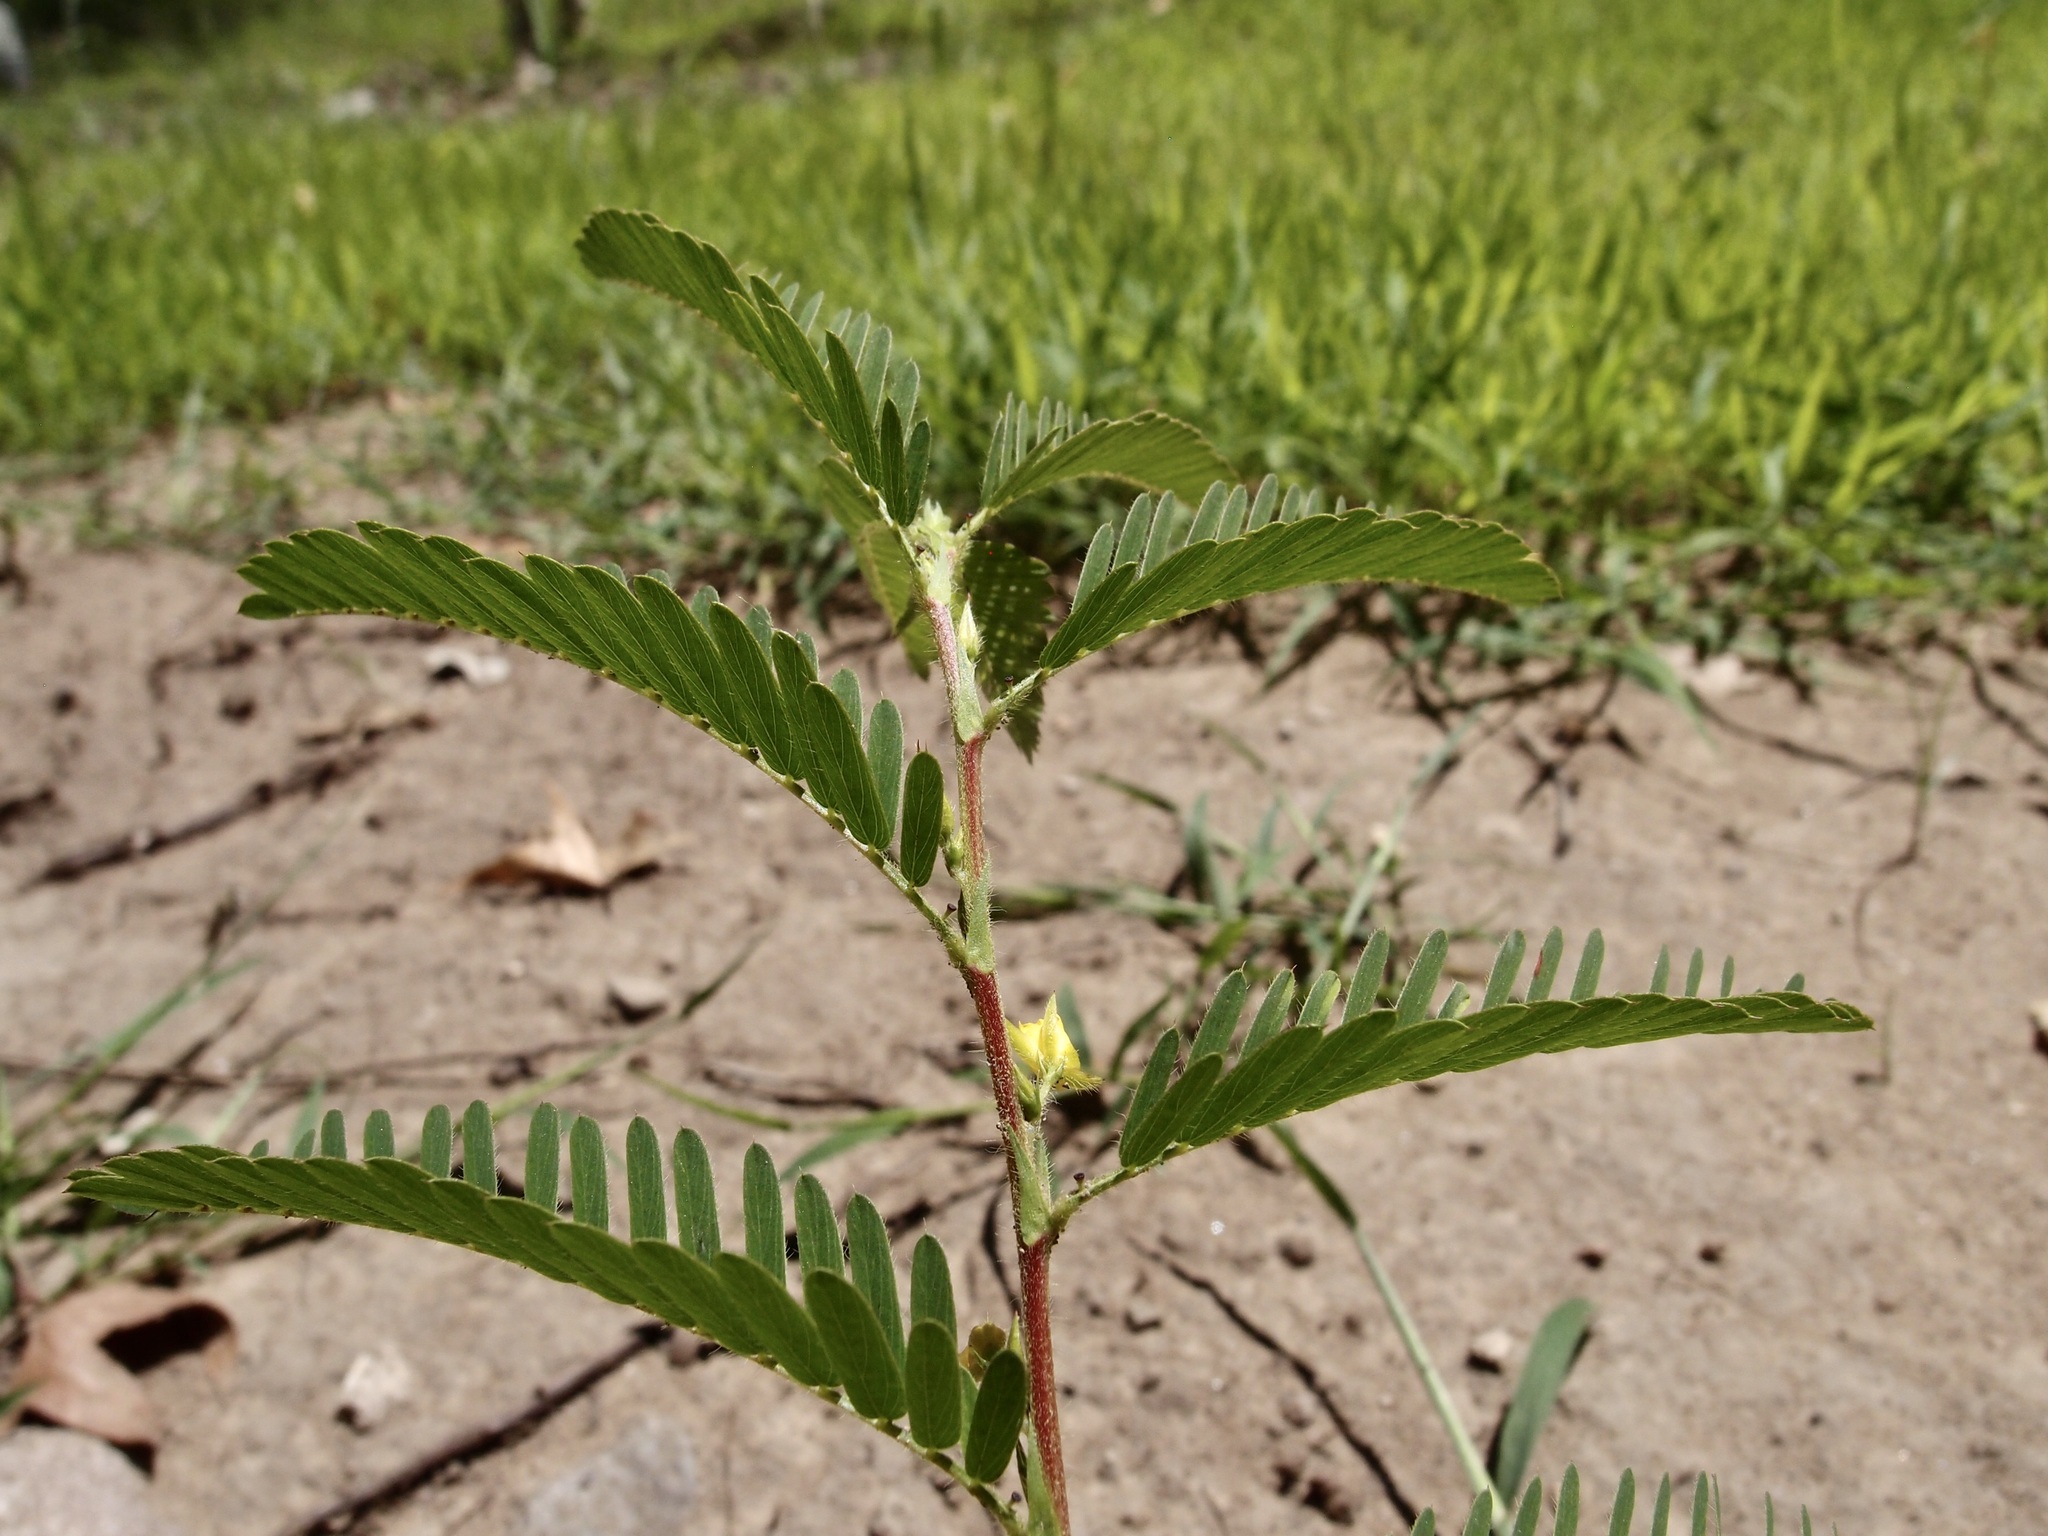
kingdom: Plantae
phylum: Tracheophyta
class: Magnoliopsida
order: Fabales
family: Fabaceae
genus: Chamaecrista
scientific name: Chamaecrista nictitans
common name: Sensitive cassia
